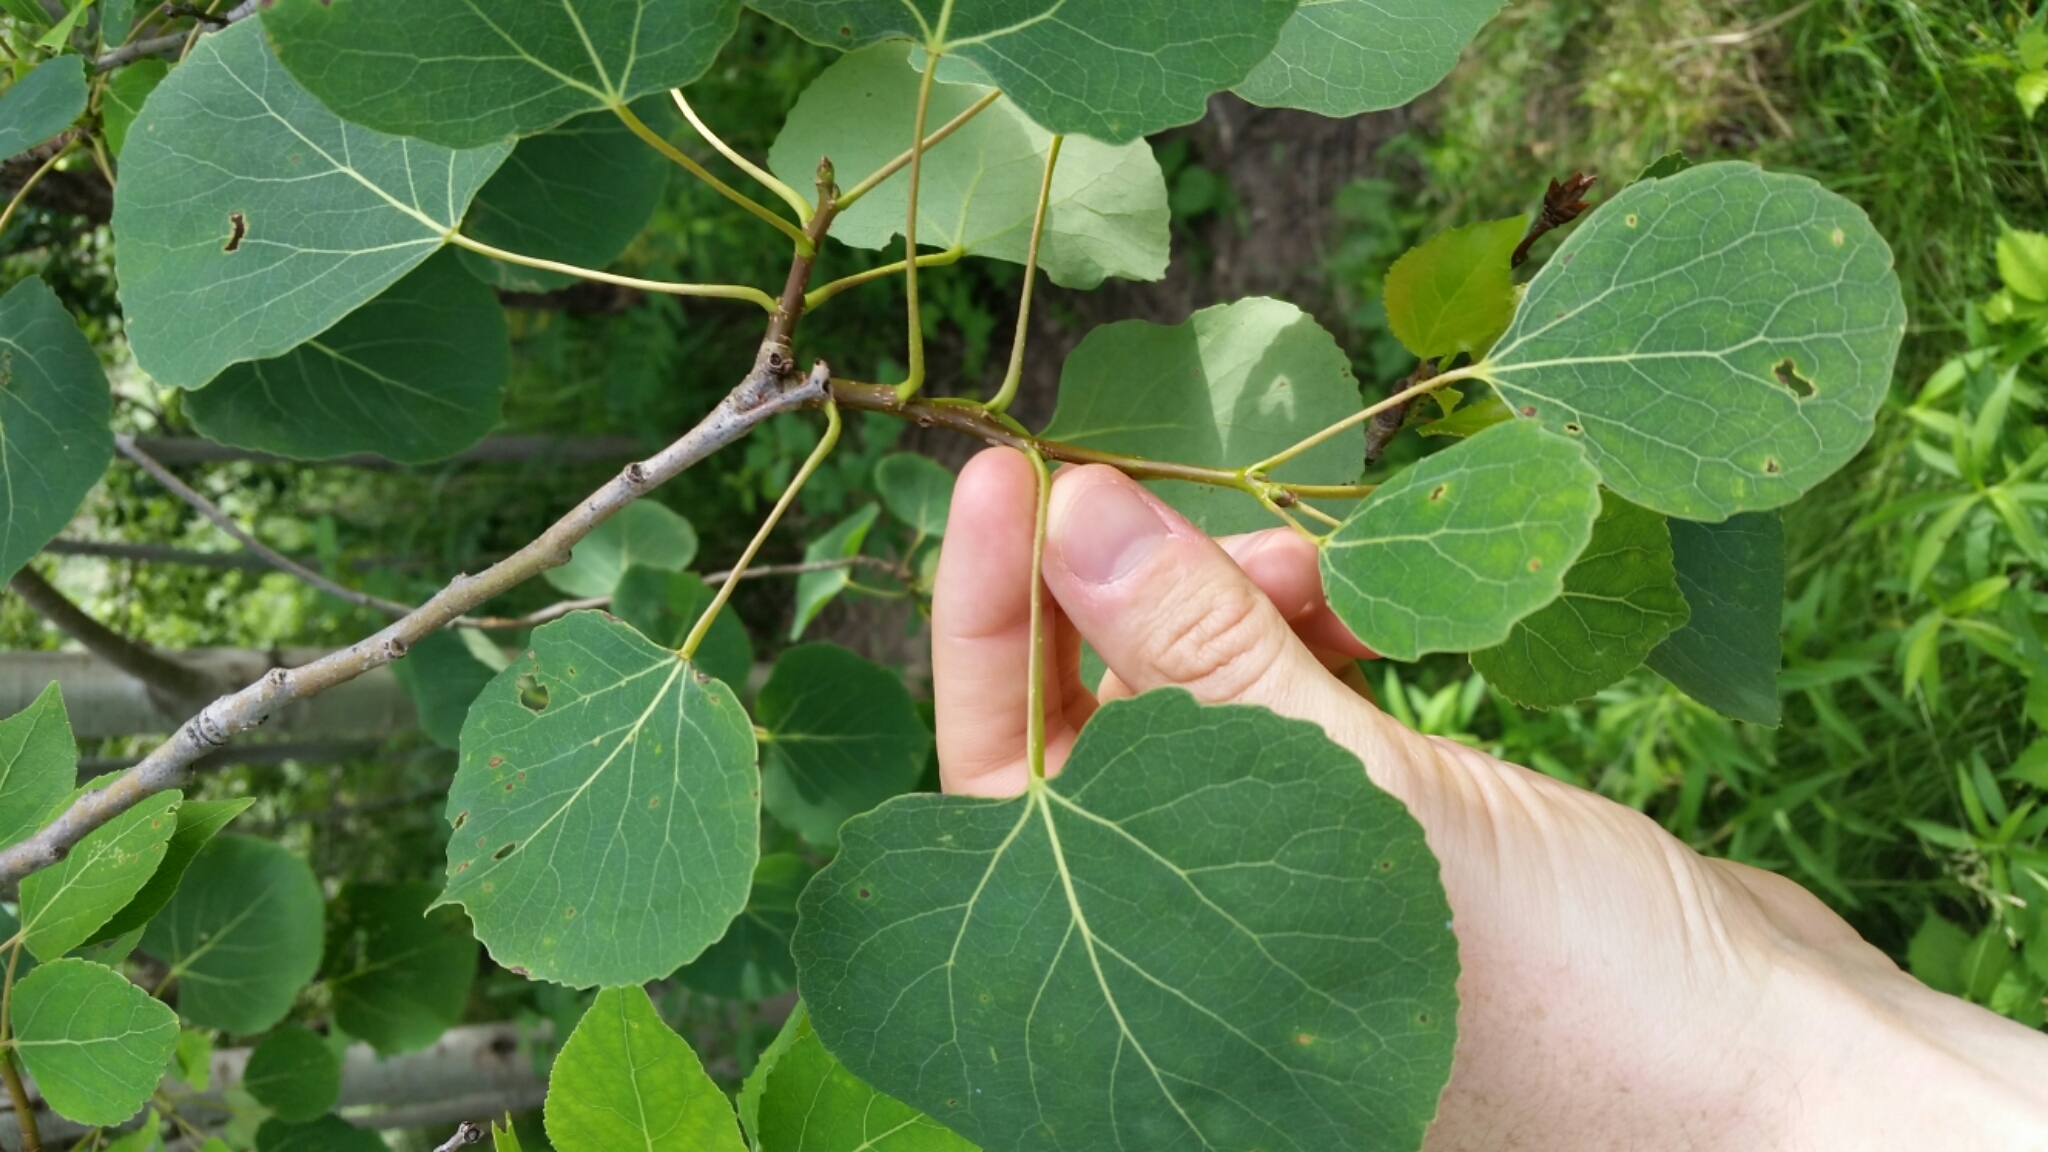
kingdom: Plantae
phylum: Tracheophyta
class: Magnoliopsida
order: Malpighiales
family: Salicaceae
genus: Populus
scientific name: Populus tremuloides
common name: Quaking aspen
